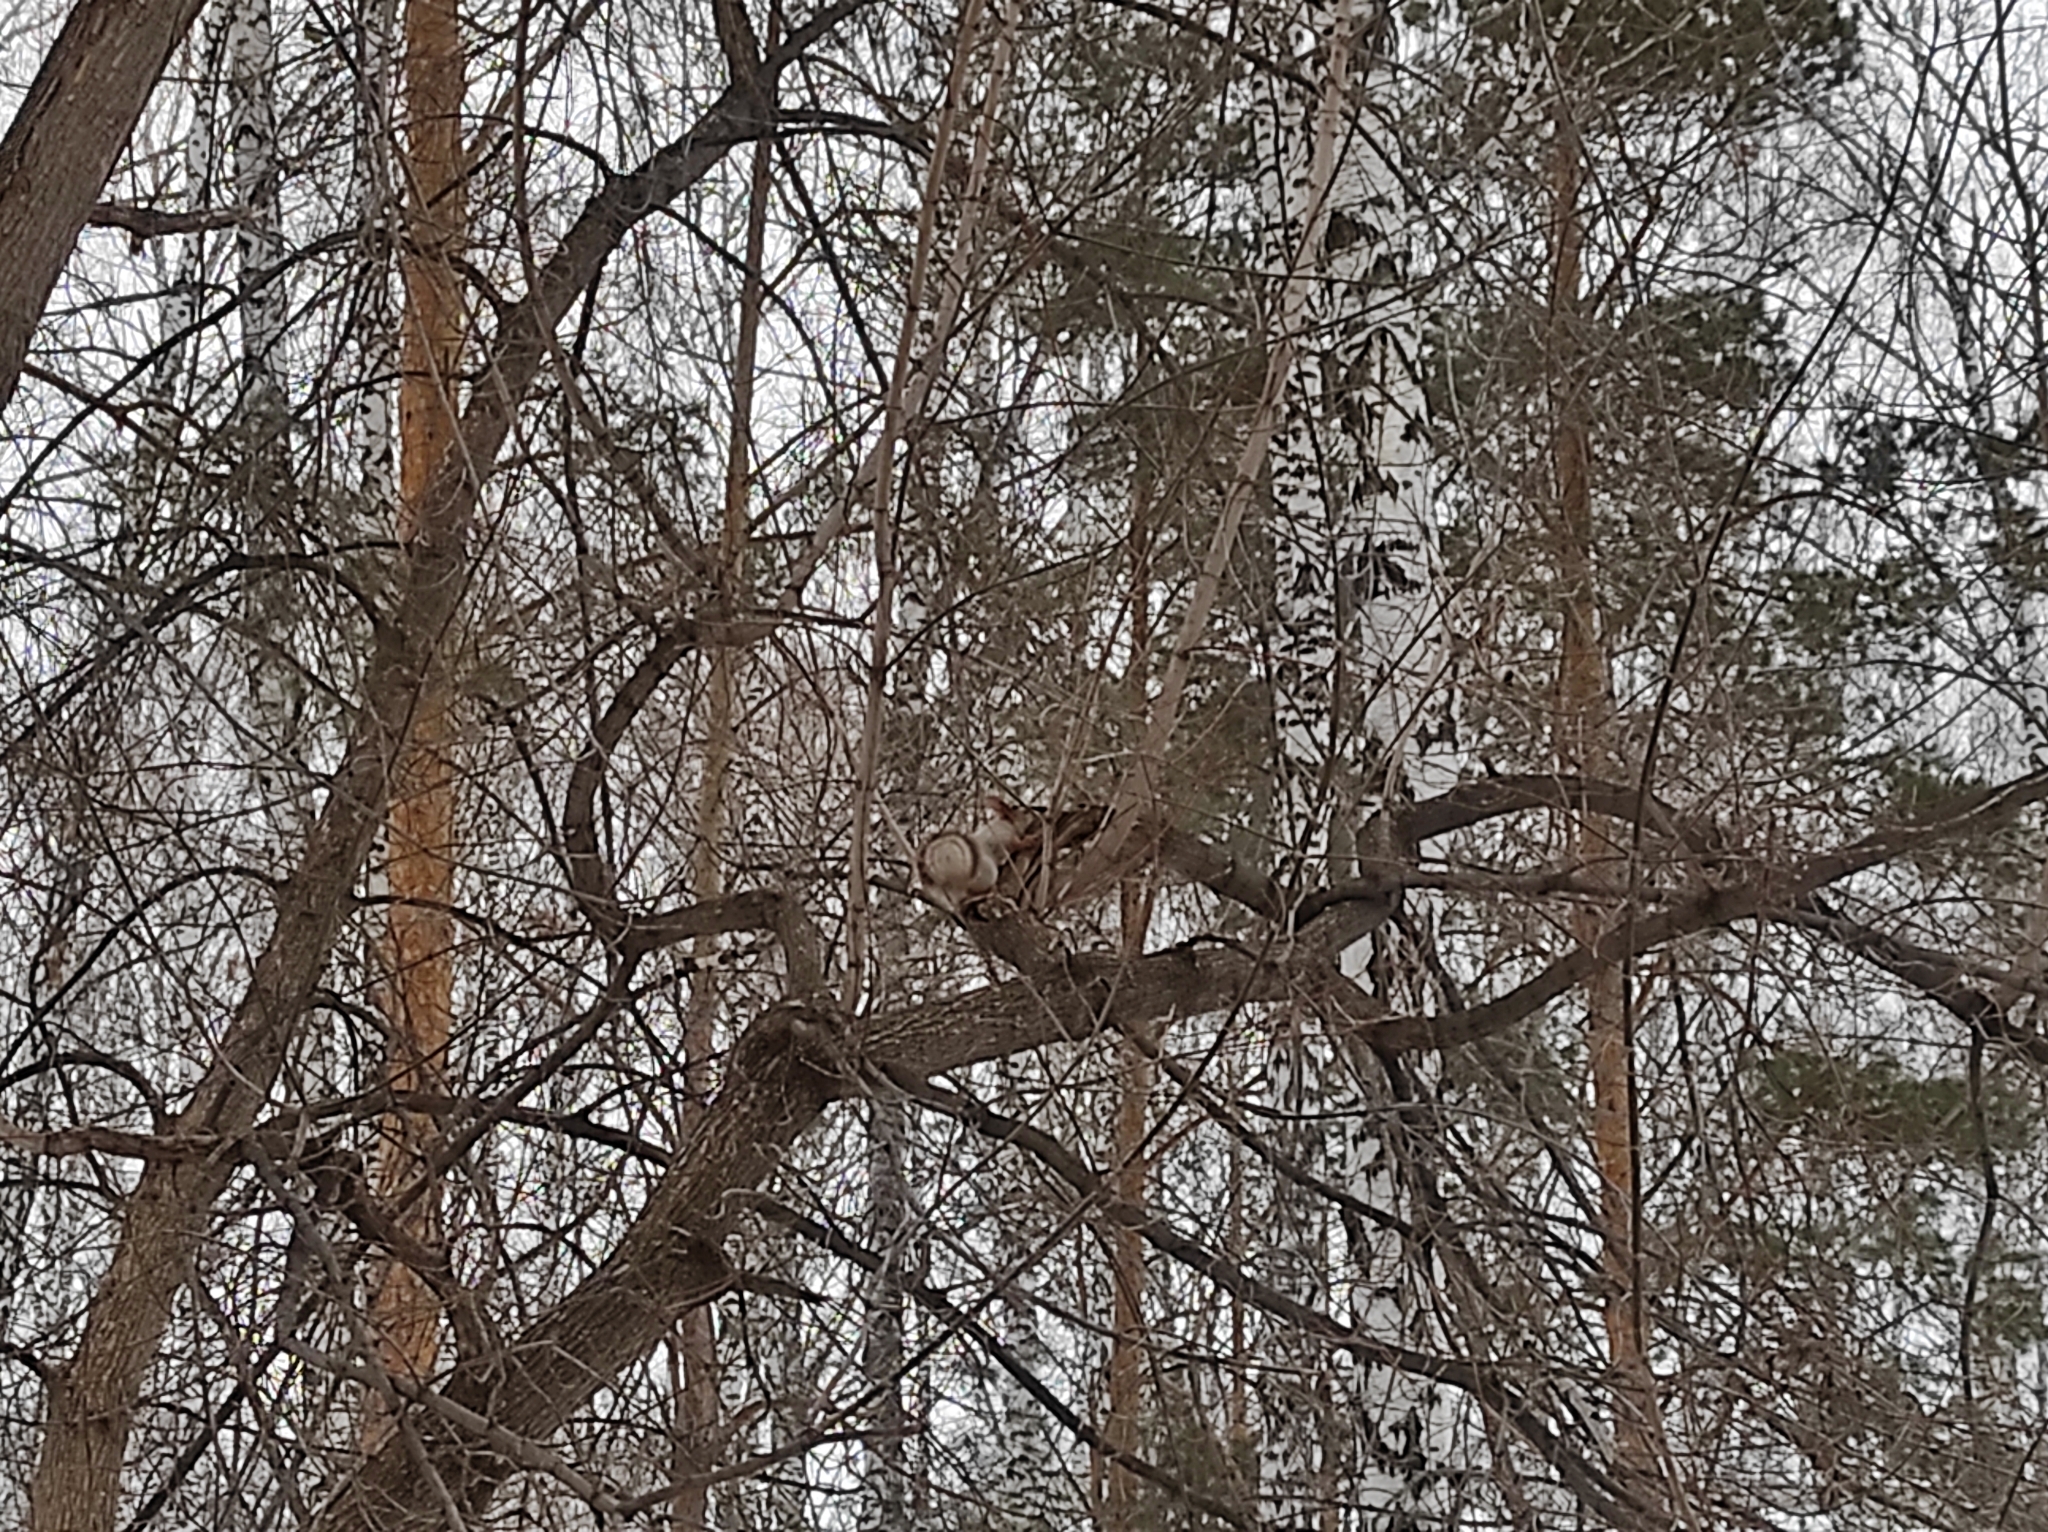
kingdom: Animalia
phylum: Chordata
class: Mammalia
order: Rodentia
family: Sciuridae
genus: Sciurus
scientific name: Sciurus vulgaris
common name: Eurasian red squirrel
